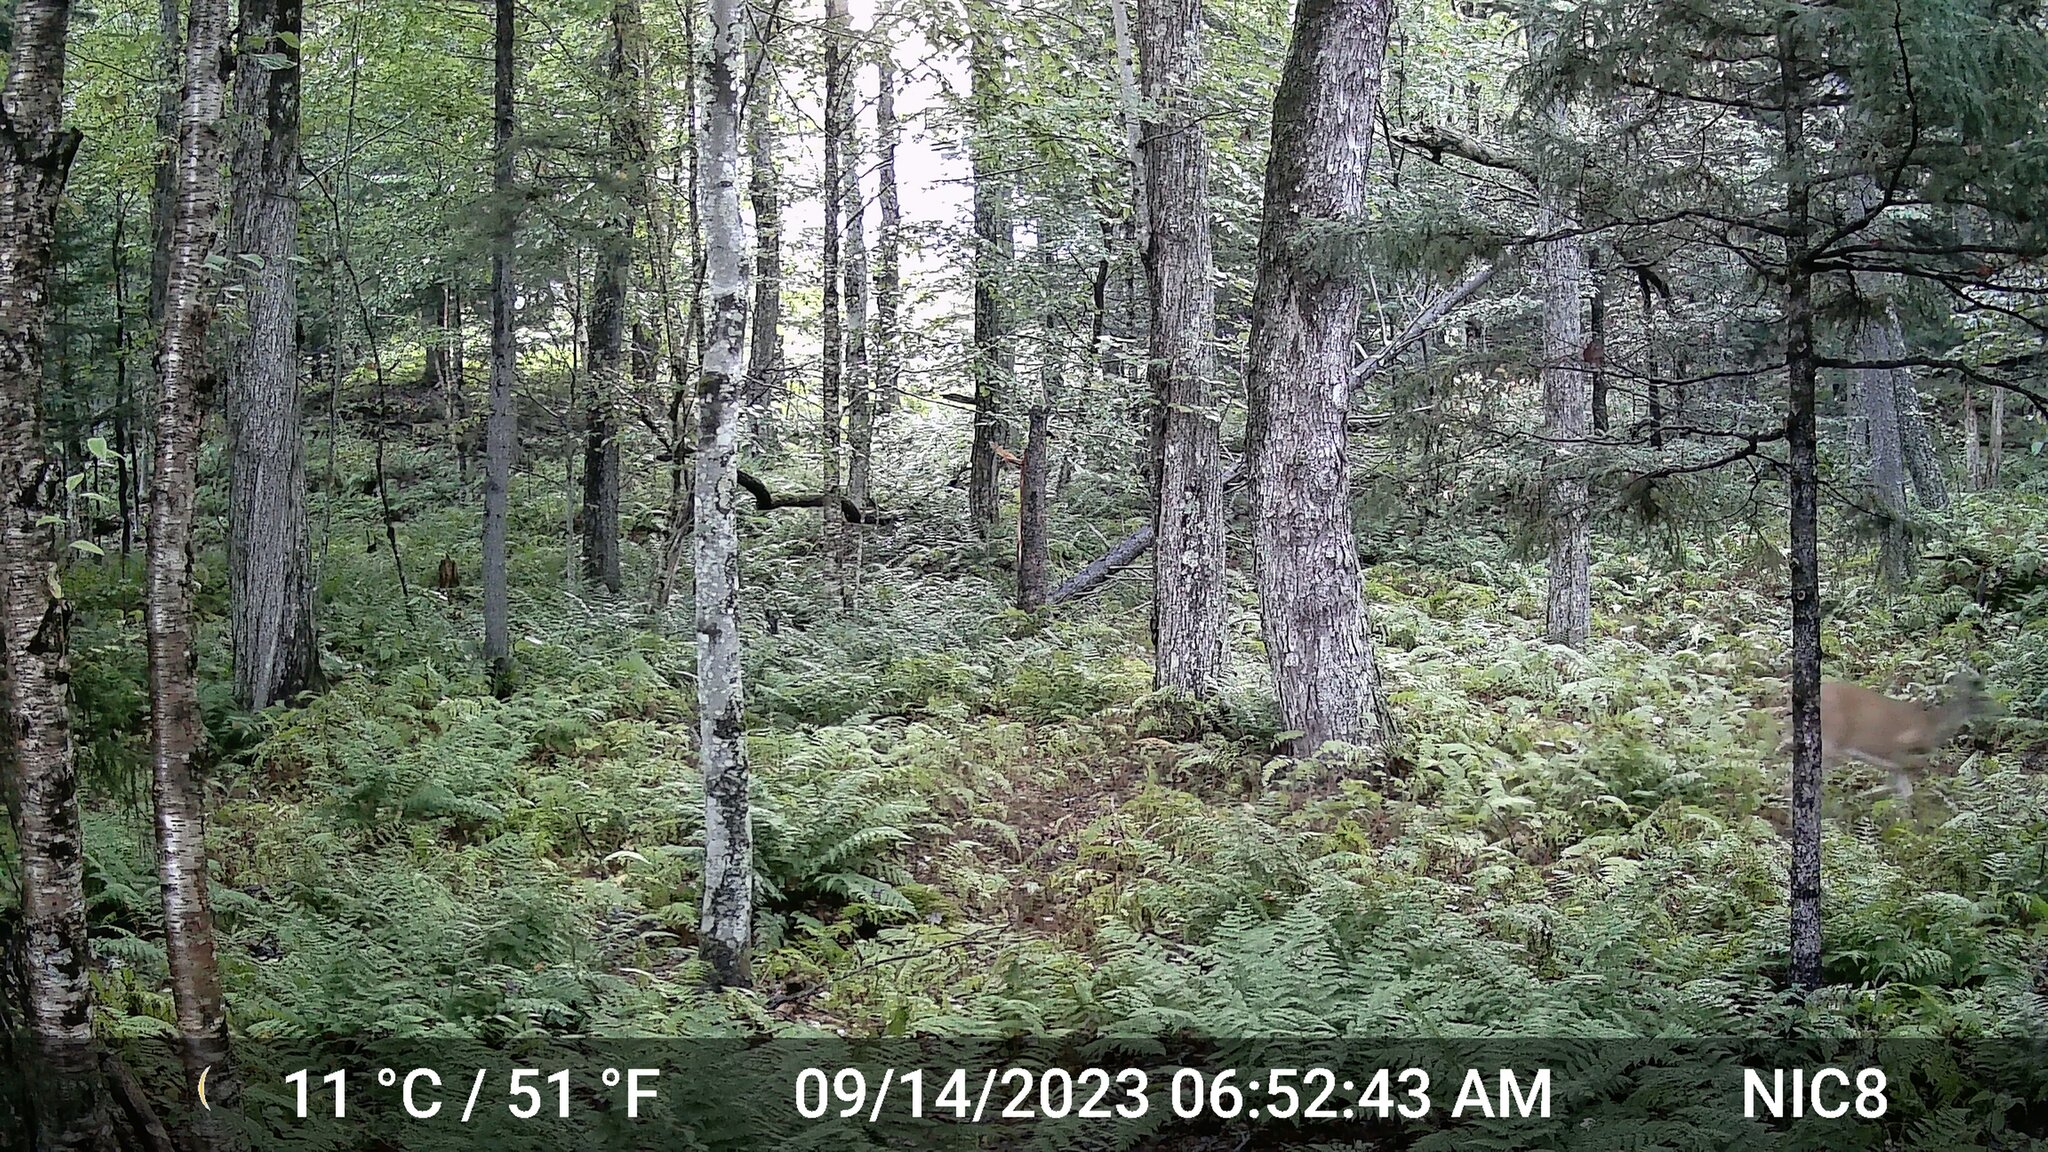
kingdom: Animalia
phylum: Chordata
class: Mammalia
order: Artiodactyla
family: Cervidae
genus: Odocoileus
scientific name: Odocoileus virginianus
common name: White-tailed deer
